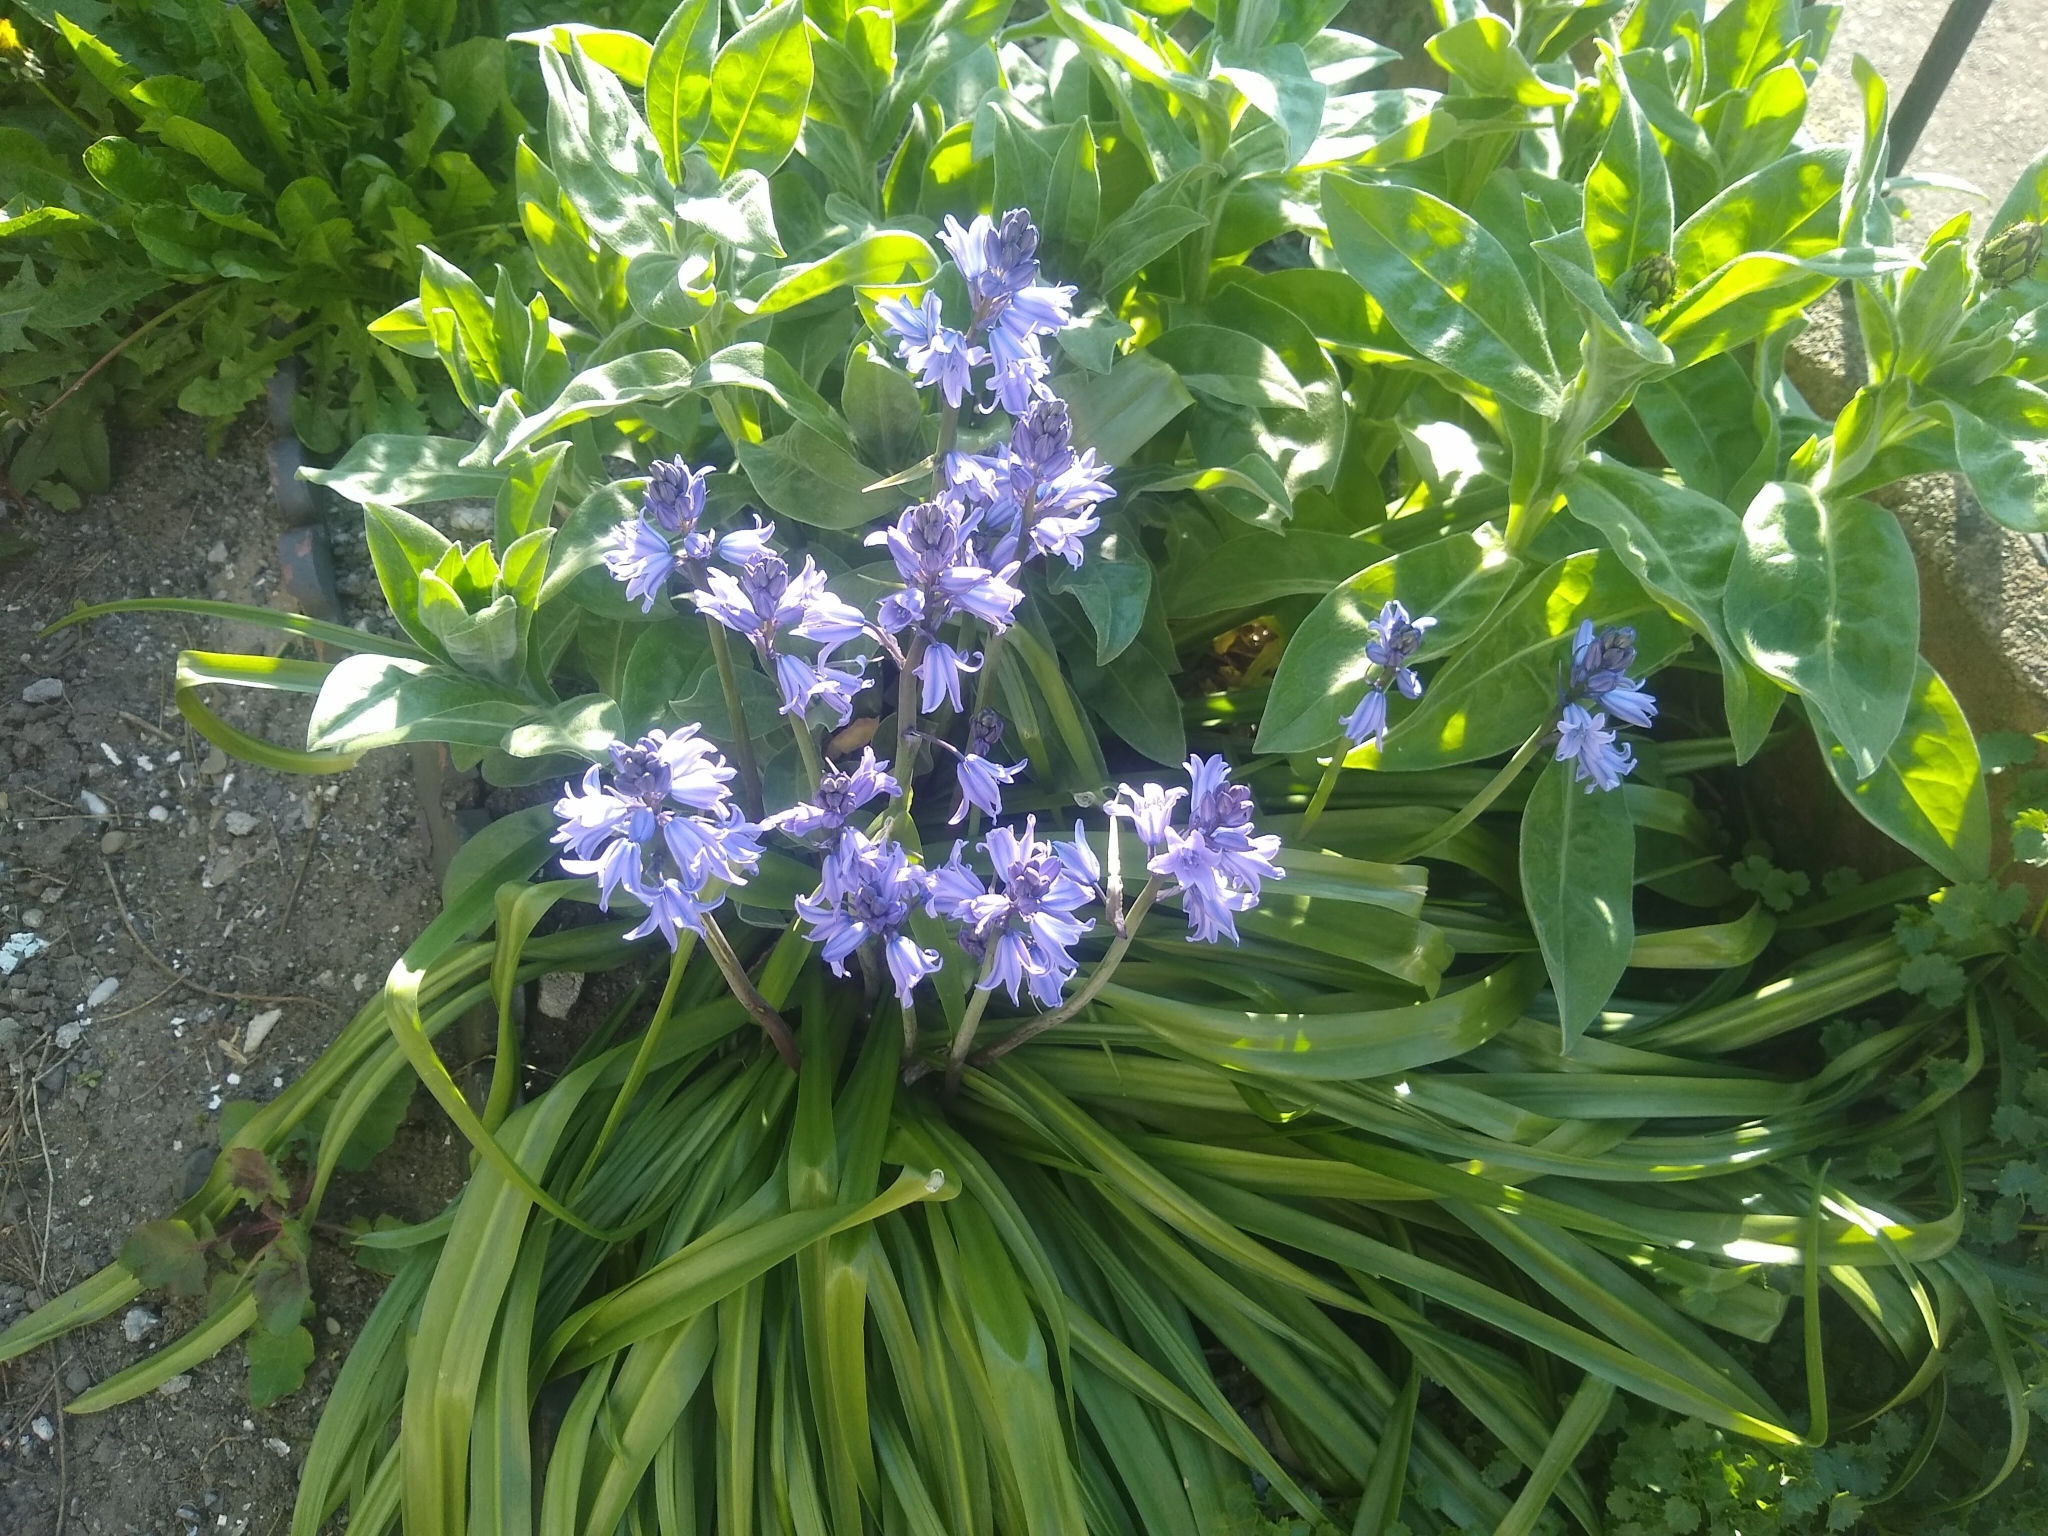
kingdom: Plantae
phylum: Tracheophyta
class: Liliopsida
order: Asparagales
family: Asparagaceae
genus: Hyacinthoides
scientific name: Hyacinthoides hispanica
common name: Spanish bluebell
